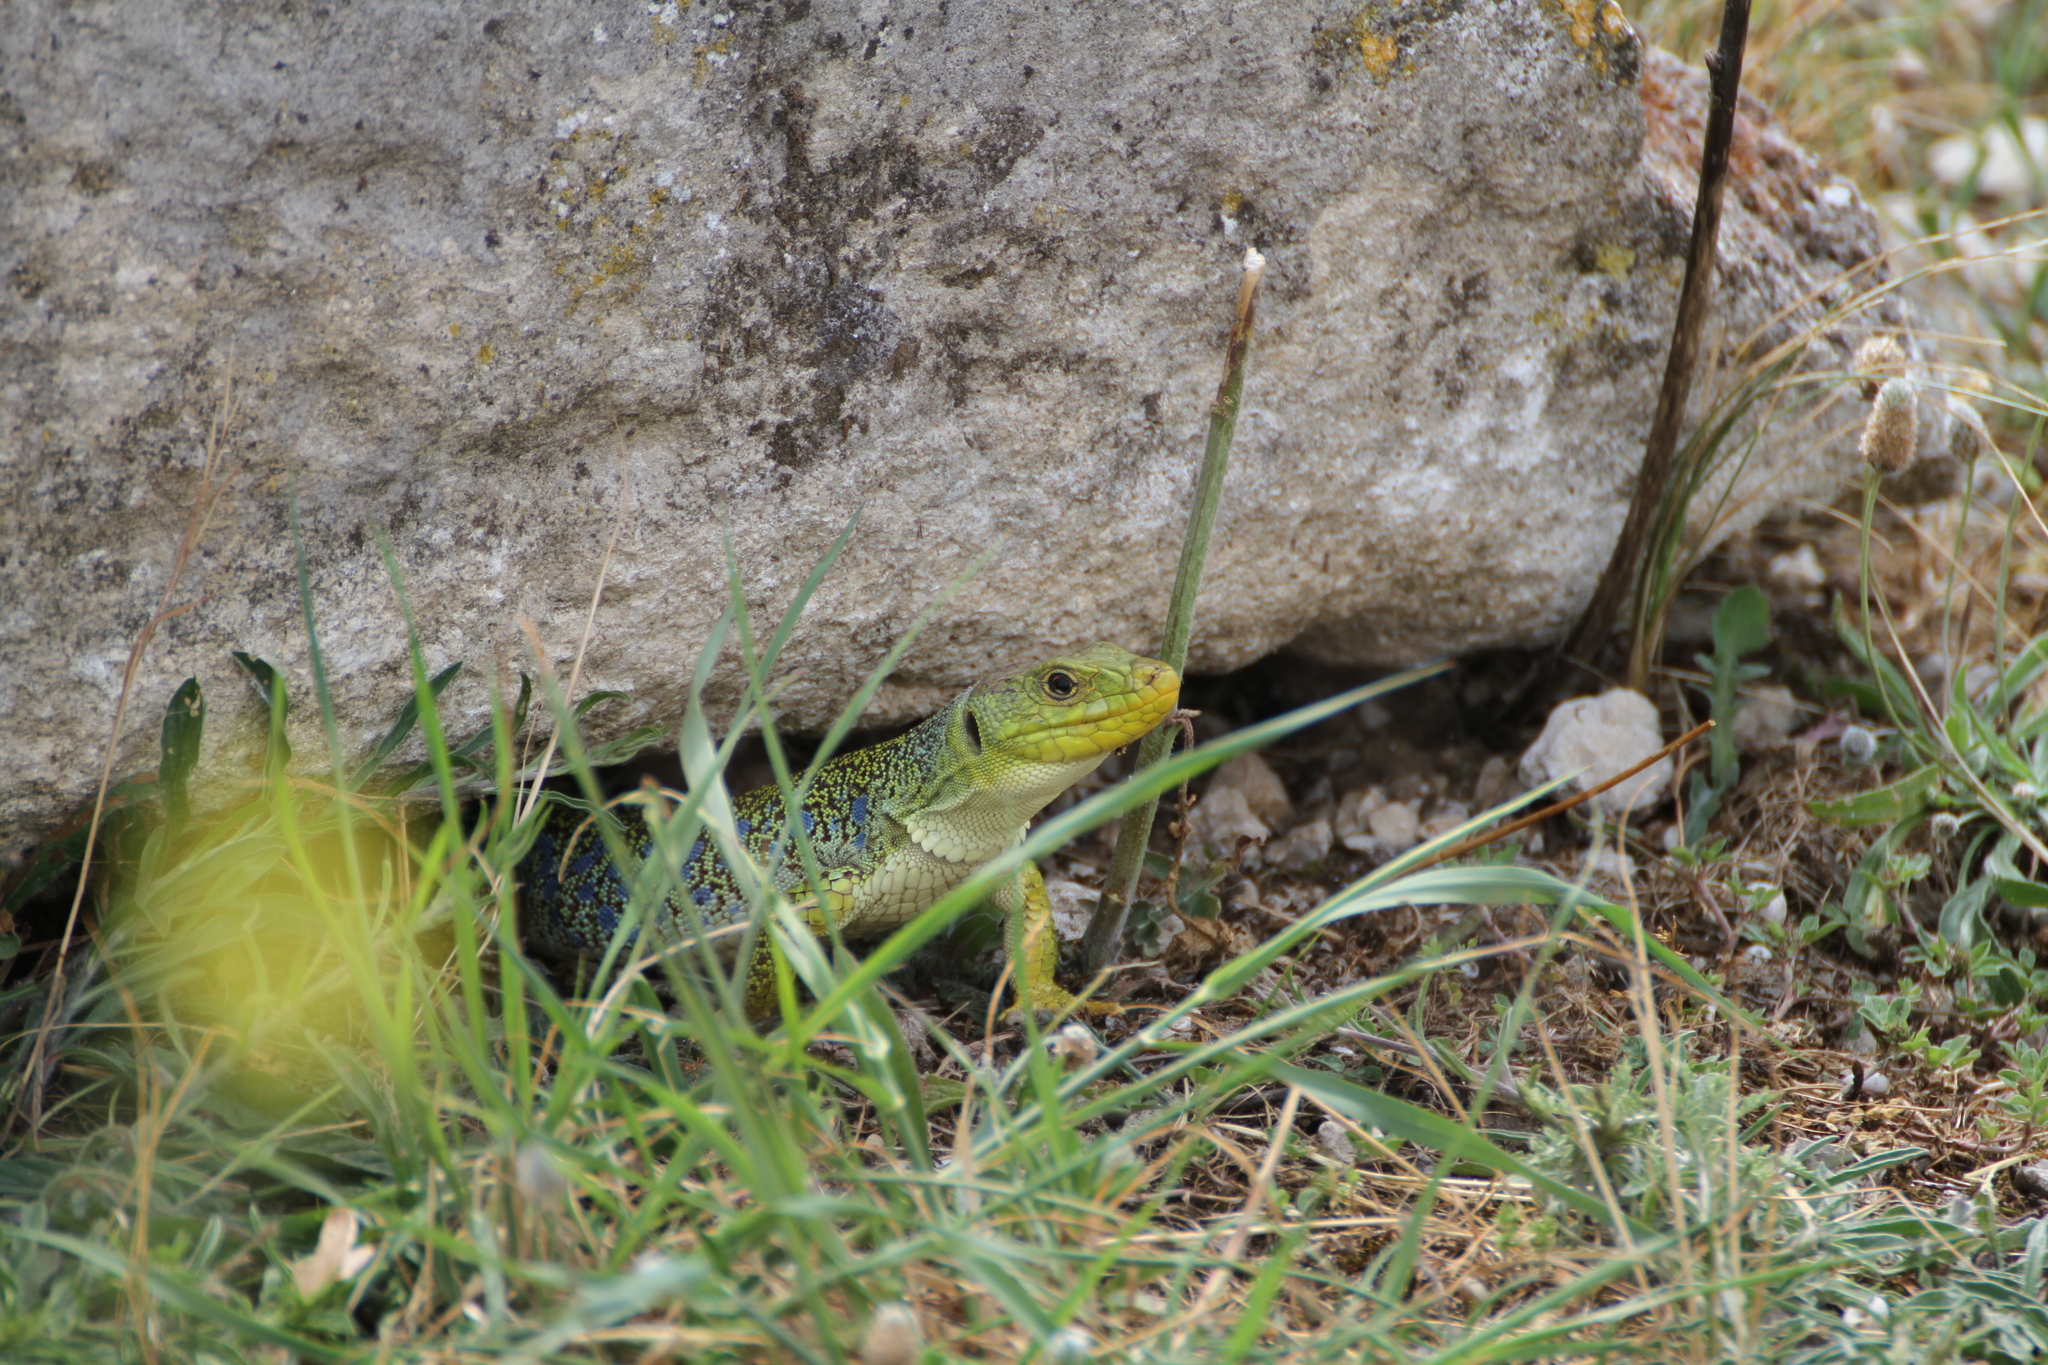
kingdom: Animalia
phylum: Chordata
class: Squamata
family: Lacertidae
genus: Timon
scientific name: Timon lepidus
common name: Ocellated lizard
